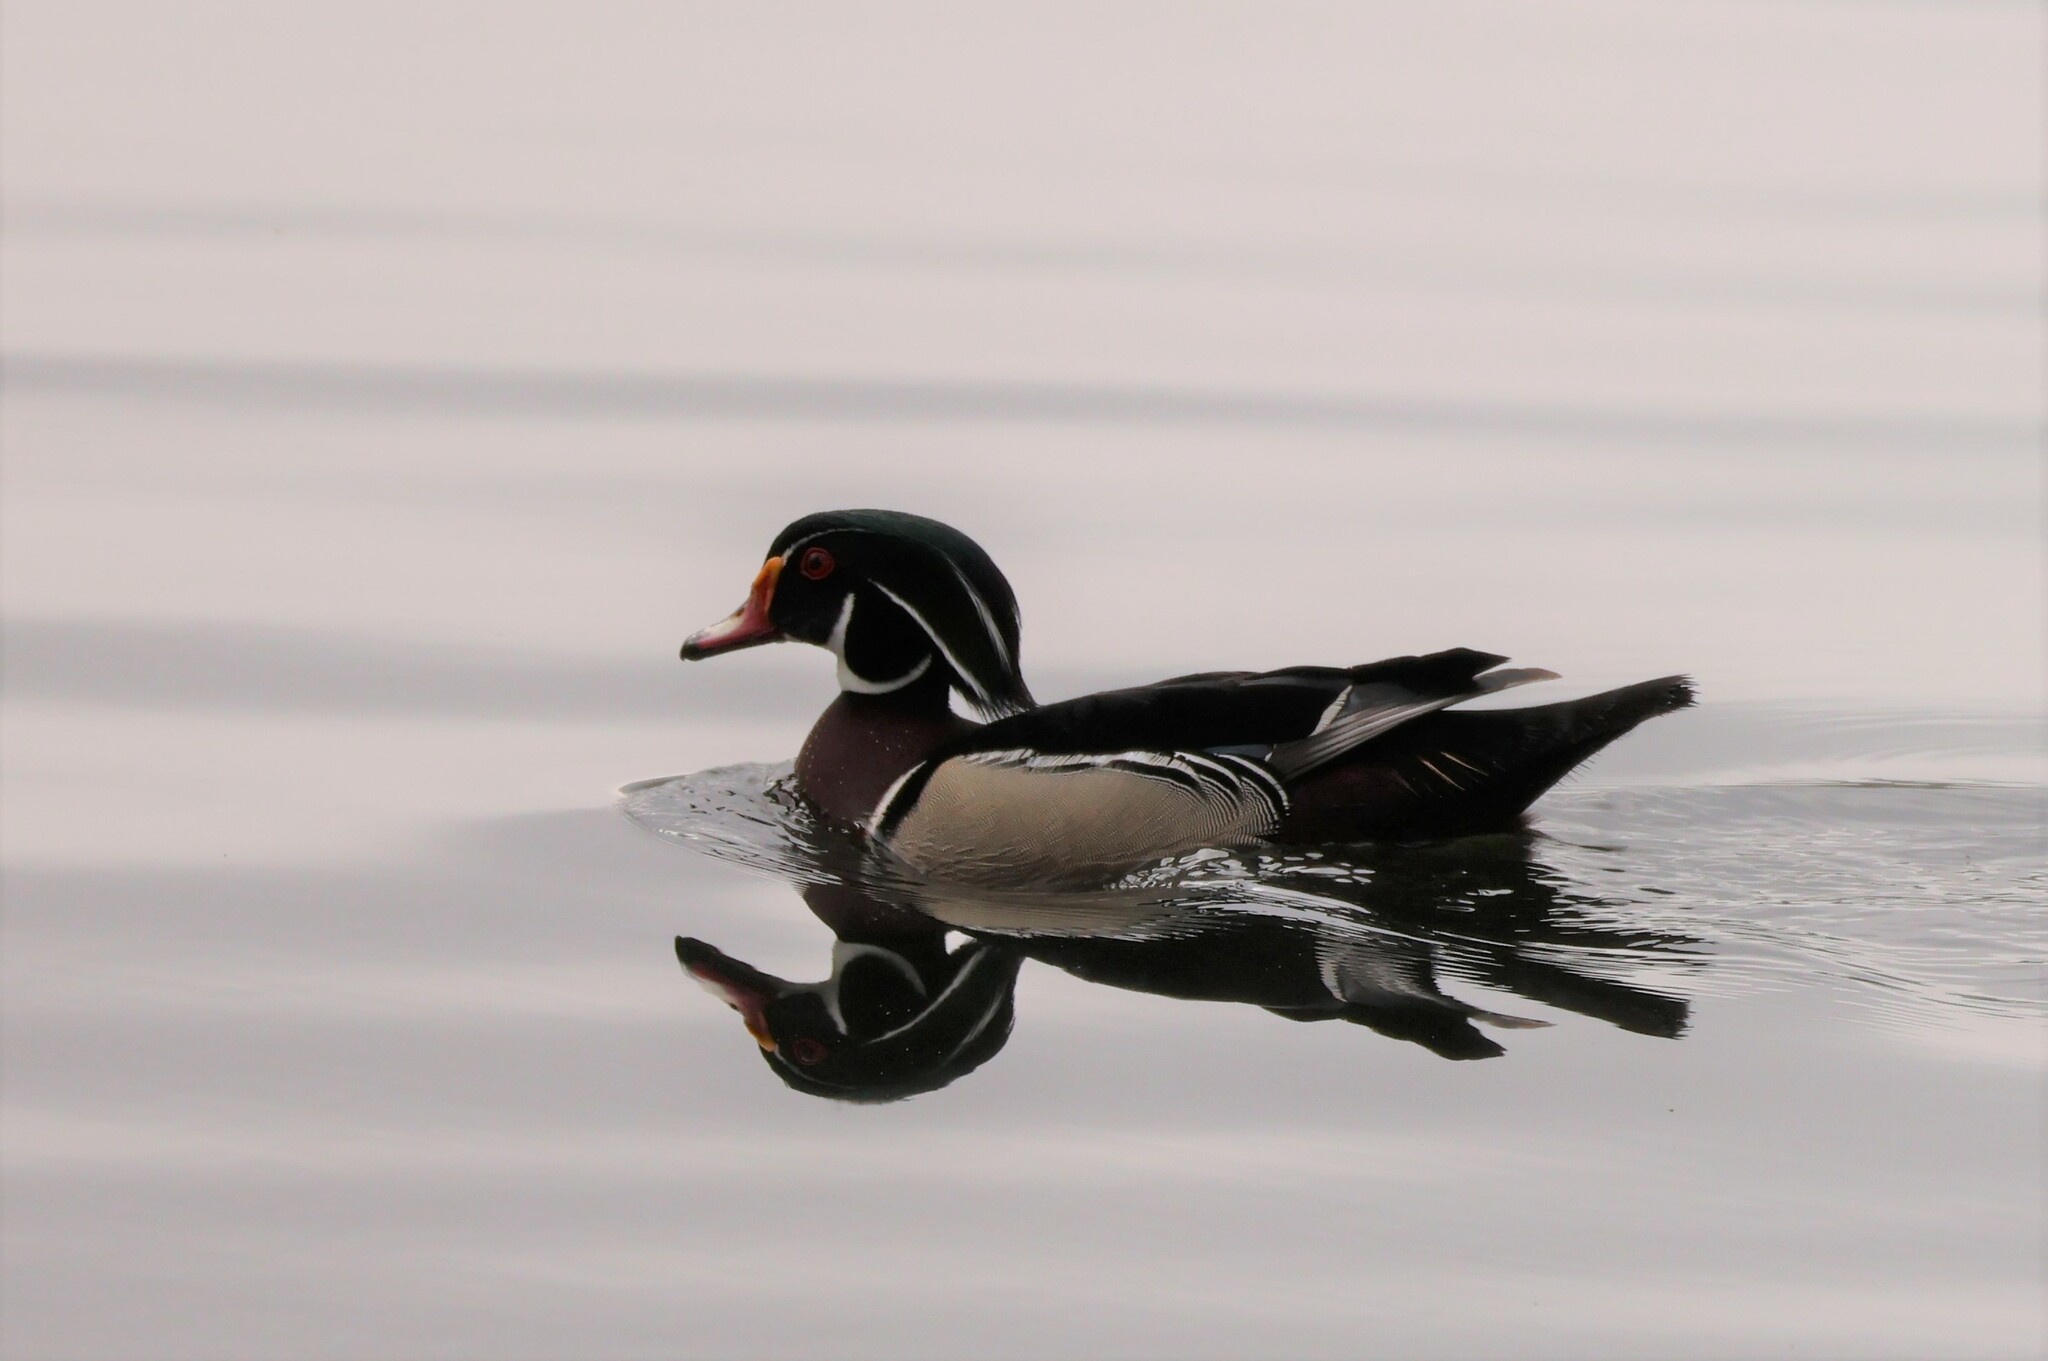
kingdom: Animalia
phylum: Chordata
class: Aves
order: Anseriformes
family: Anatidae
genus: Aix
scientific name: Aix sponsa
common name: Wood duck
